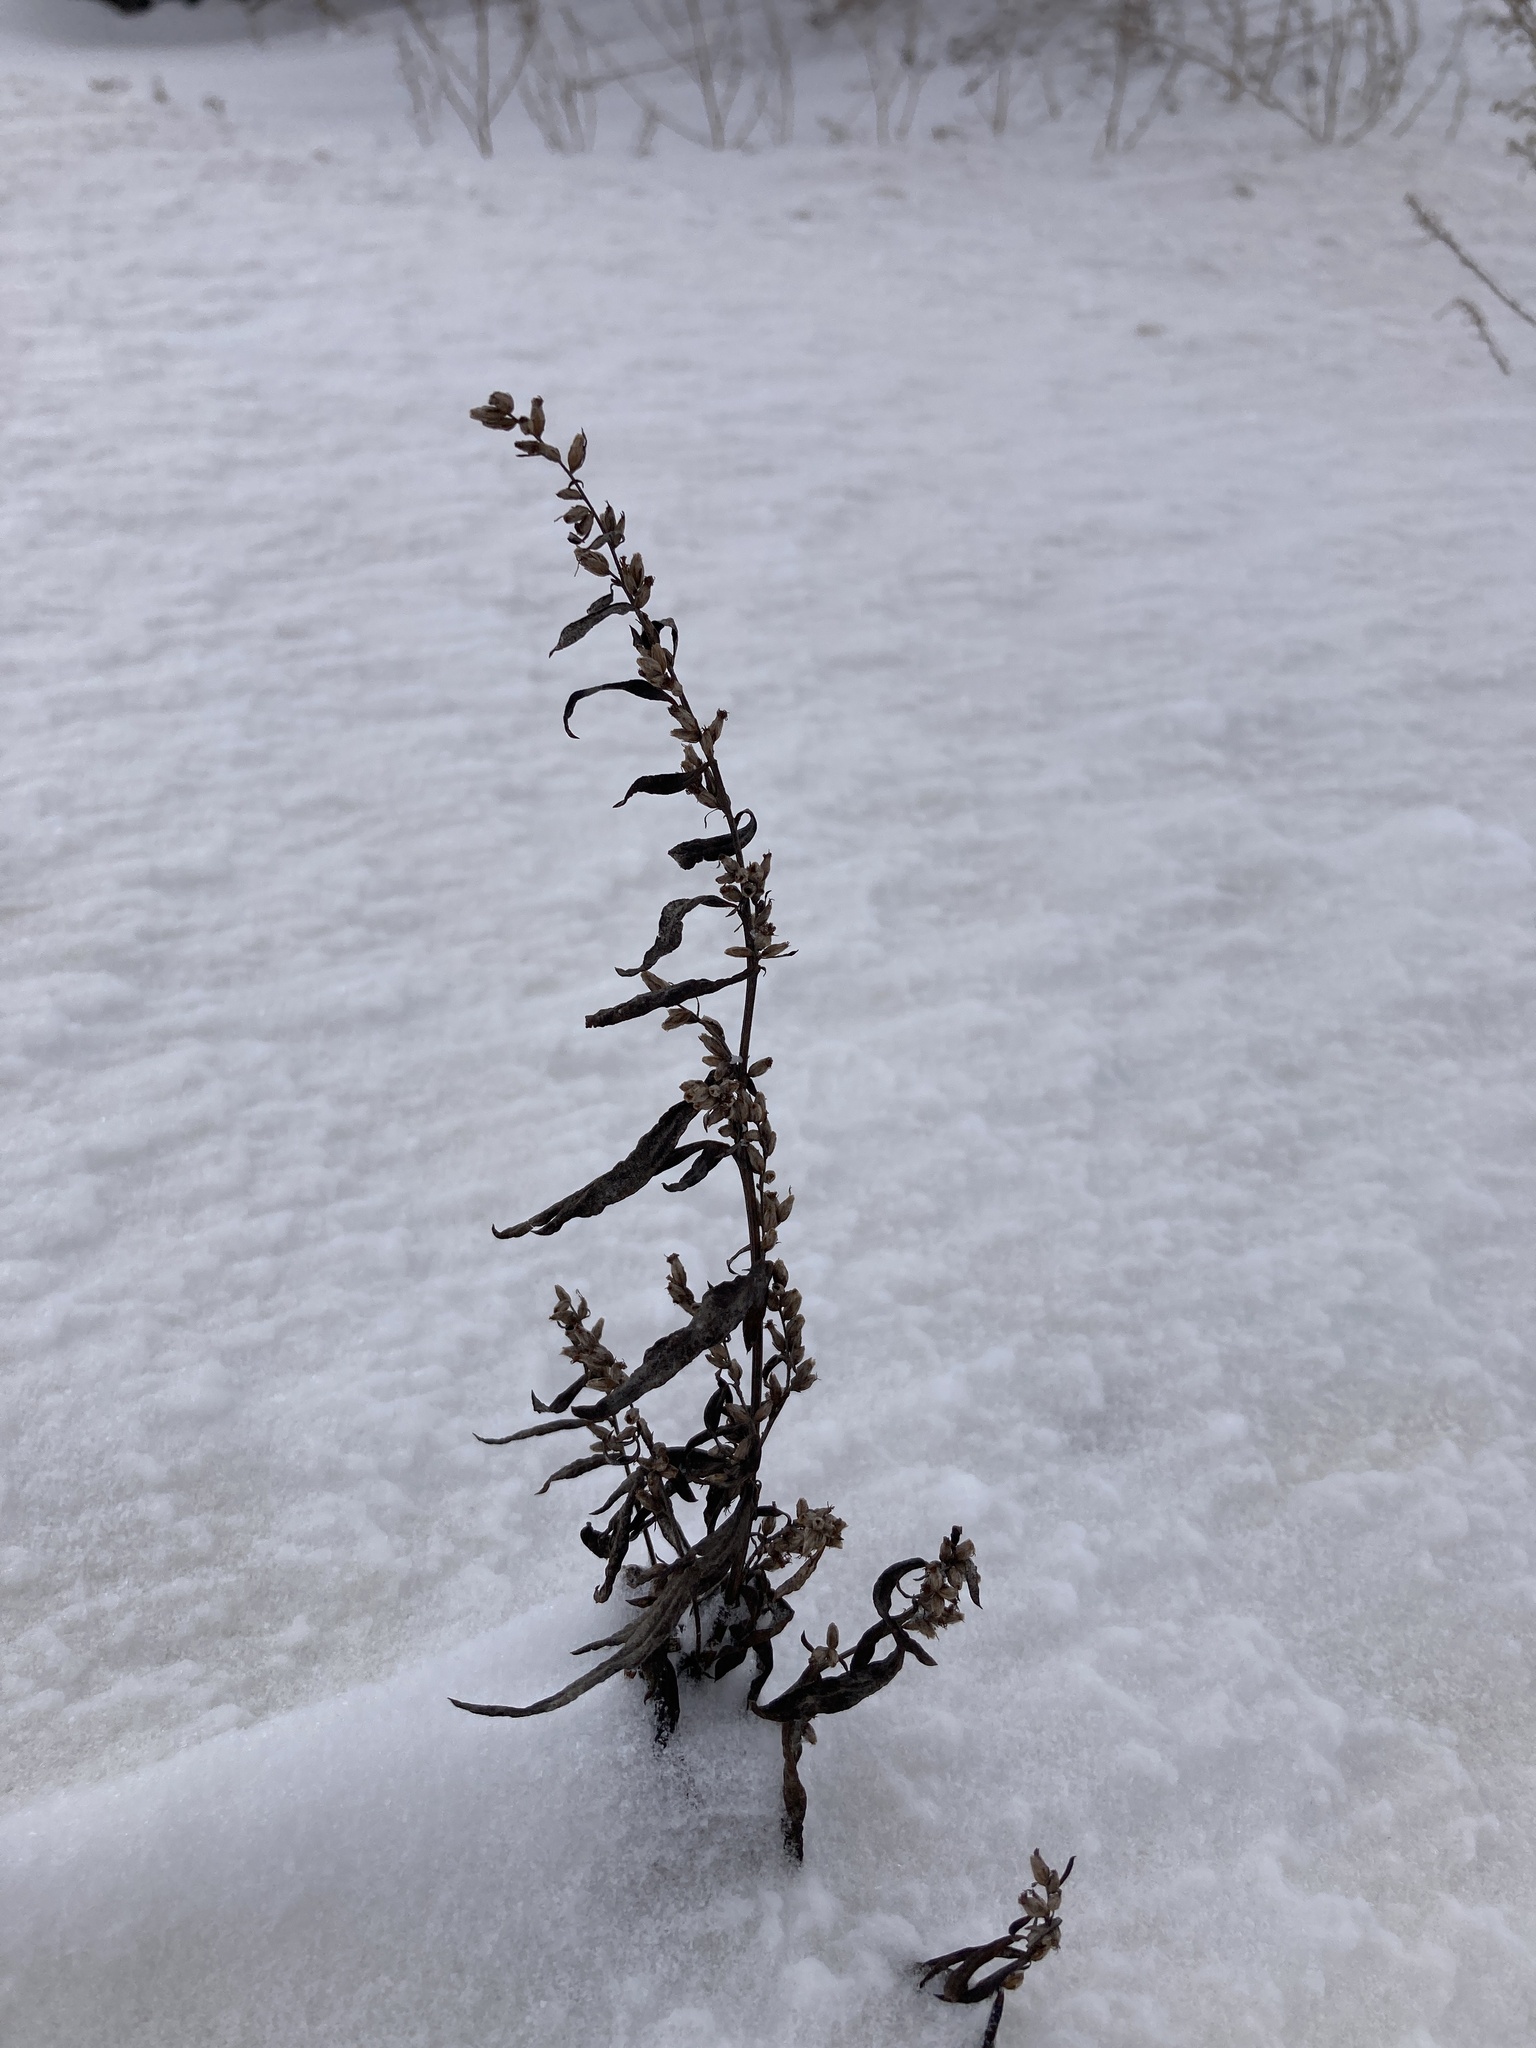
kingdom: Plantae
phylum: Tracheophyta
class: Magnoliopsida
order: Asterales
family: Asteraceae
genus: Artemisia
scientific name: Artemisia vulgaris
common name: Mugwort
